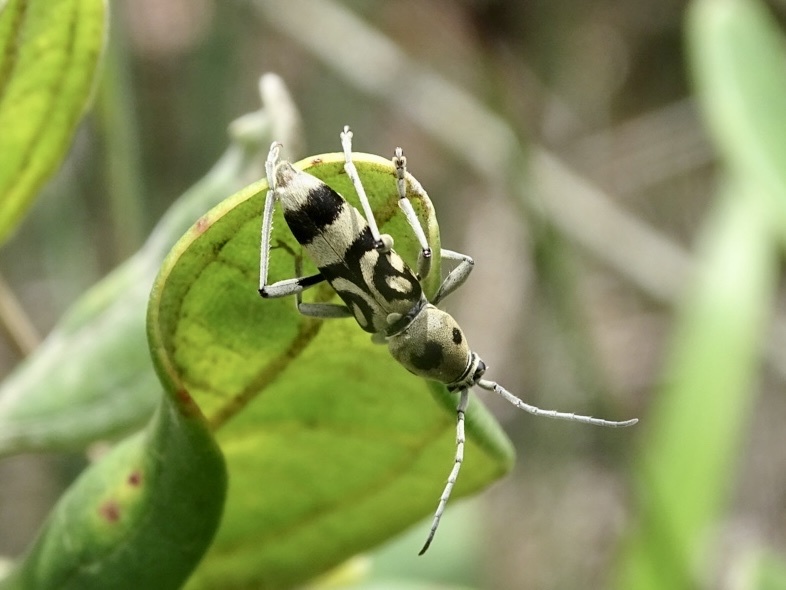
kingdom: Animalia
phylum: Arthropoda
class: Insecta
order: Coleoptera
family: Cerambycidae
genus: Chlorophorus
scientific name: Chlorophorus macaumensis
